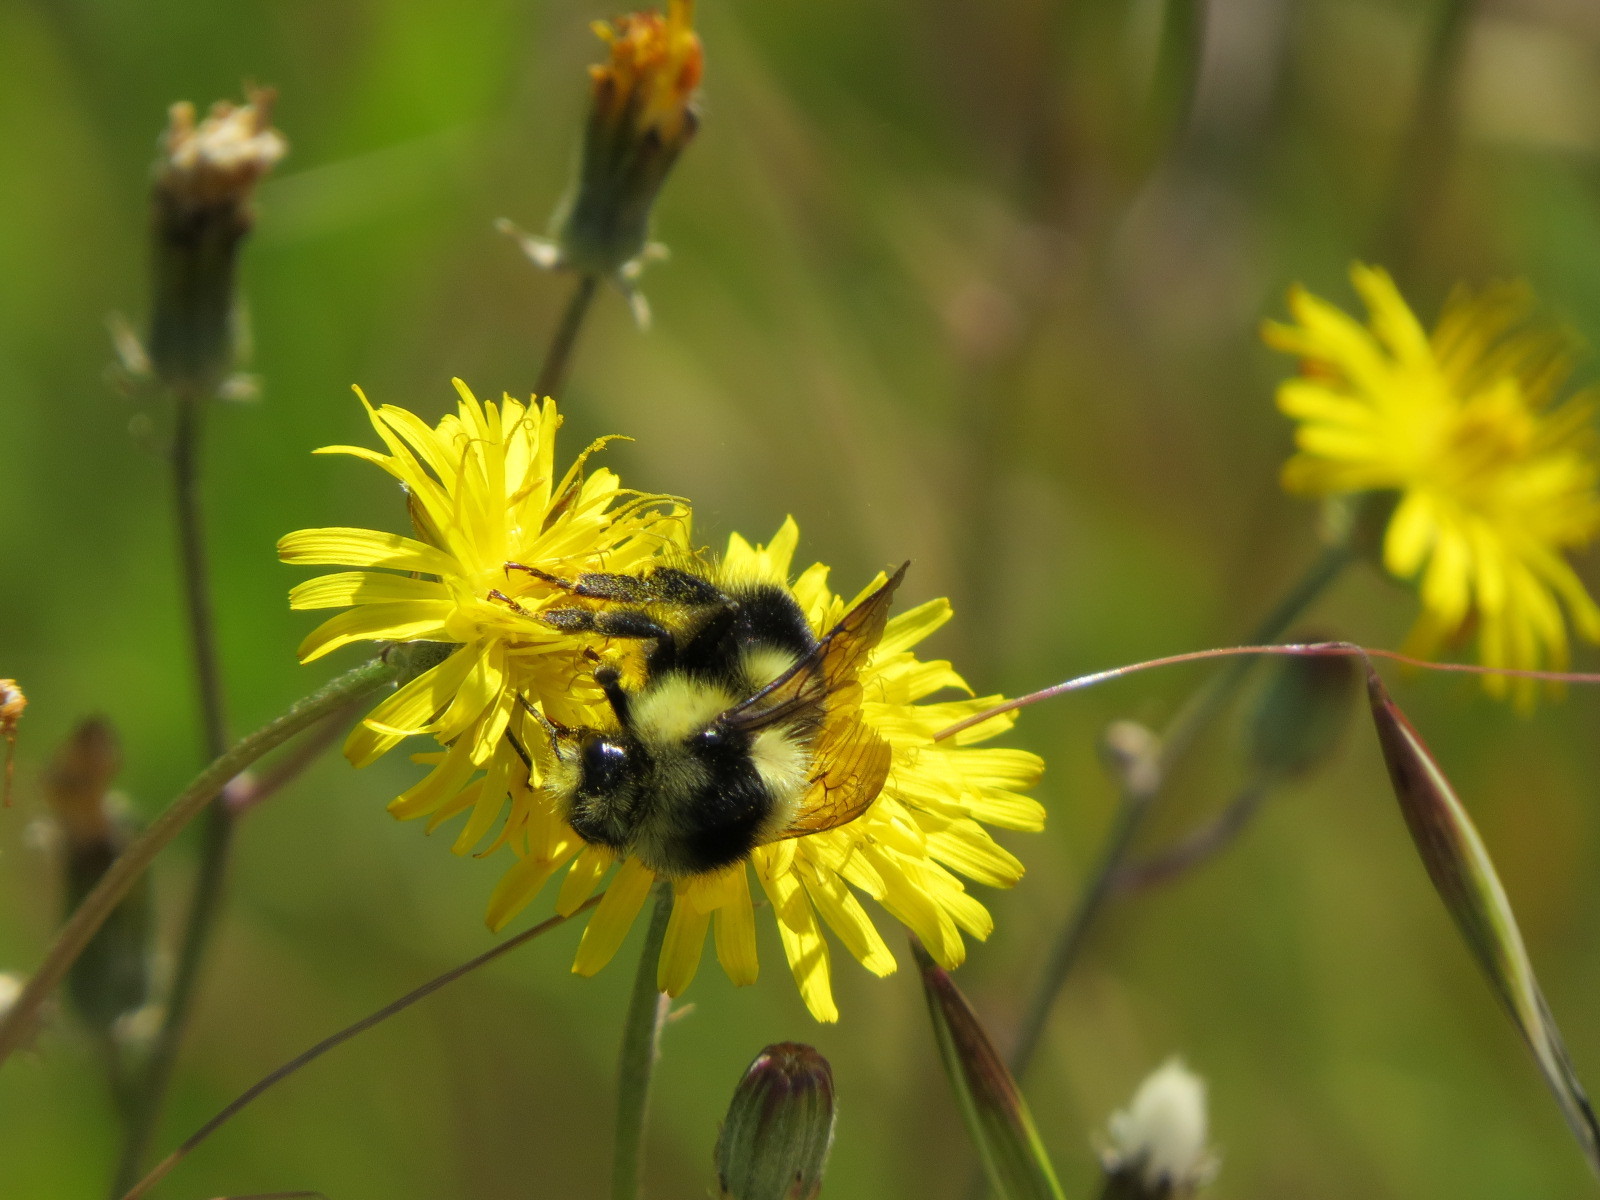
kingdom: Animalia
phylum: Arthropoda
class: Insecta
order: Hymenoptera
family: Apidae
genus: Bombus
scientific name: Bombus melanopygus
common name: Black tail bumble bee
